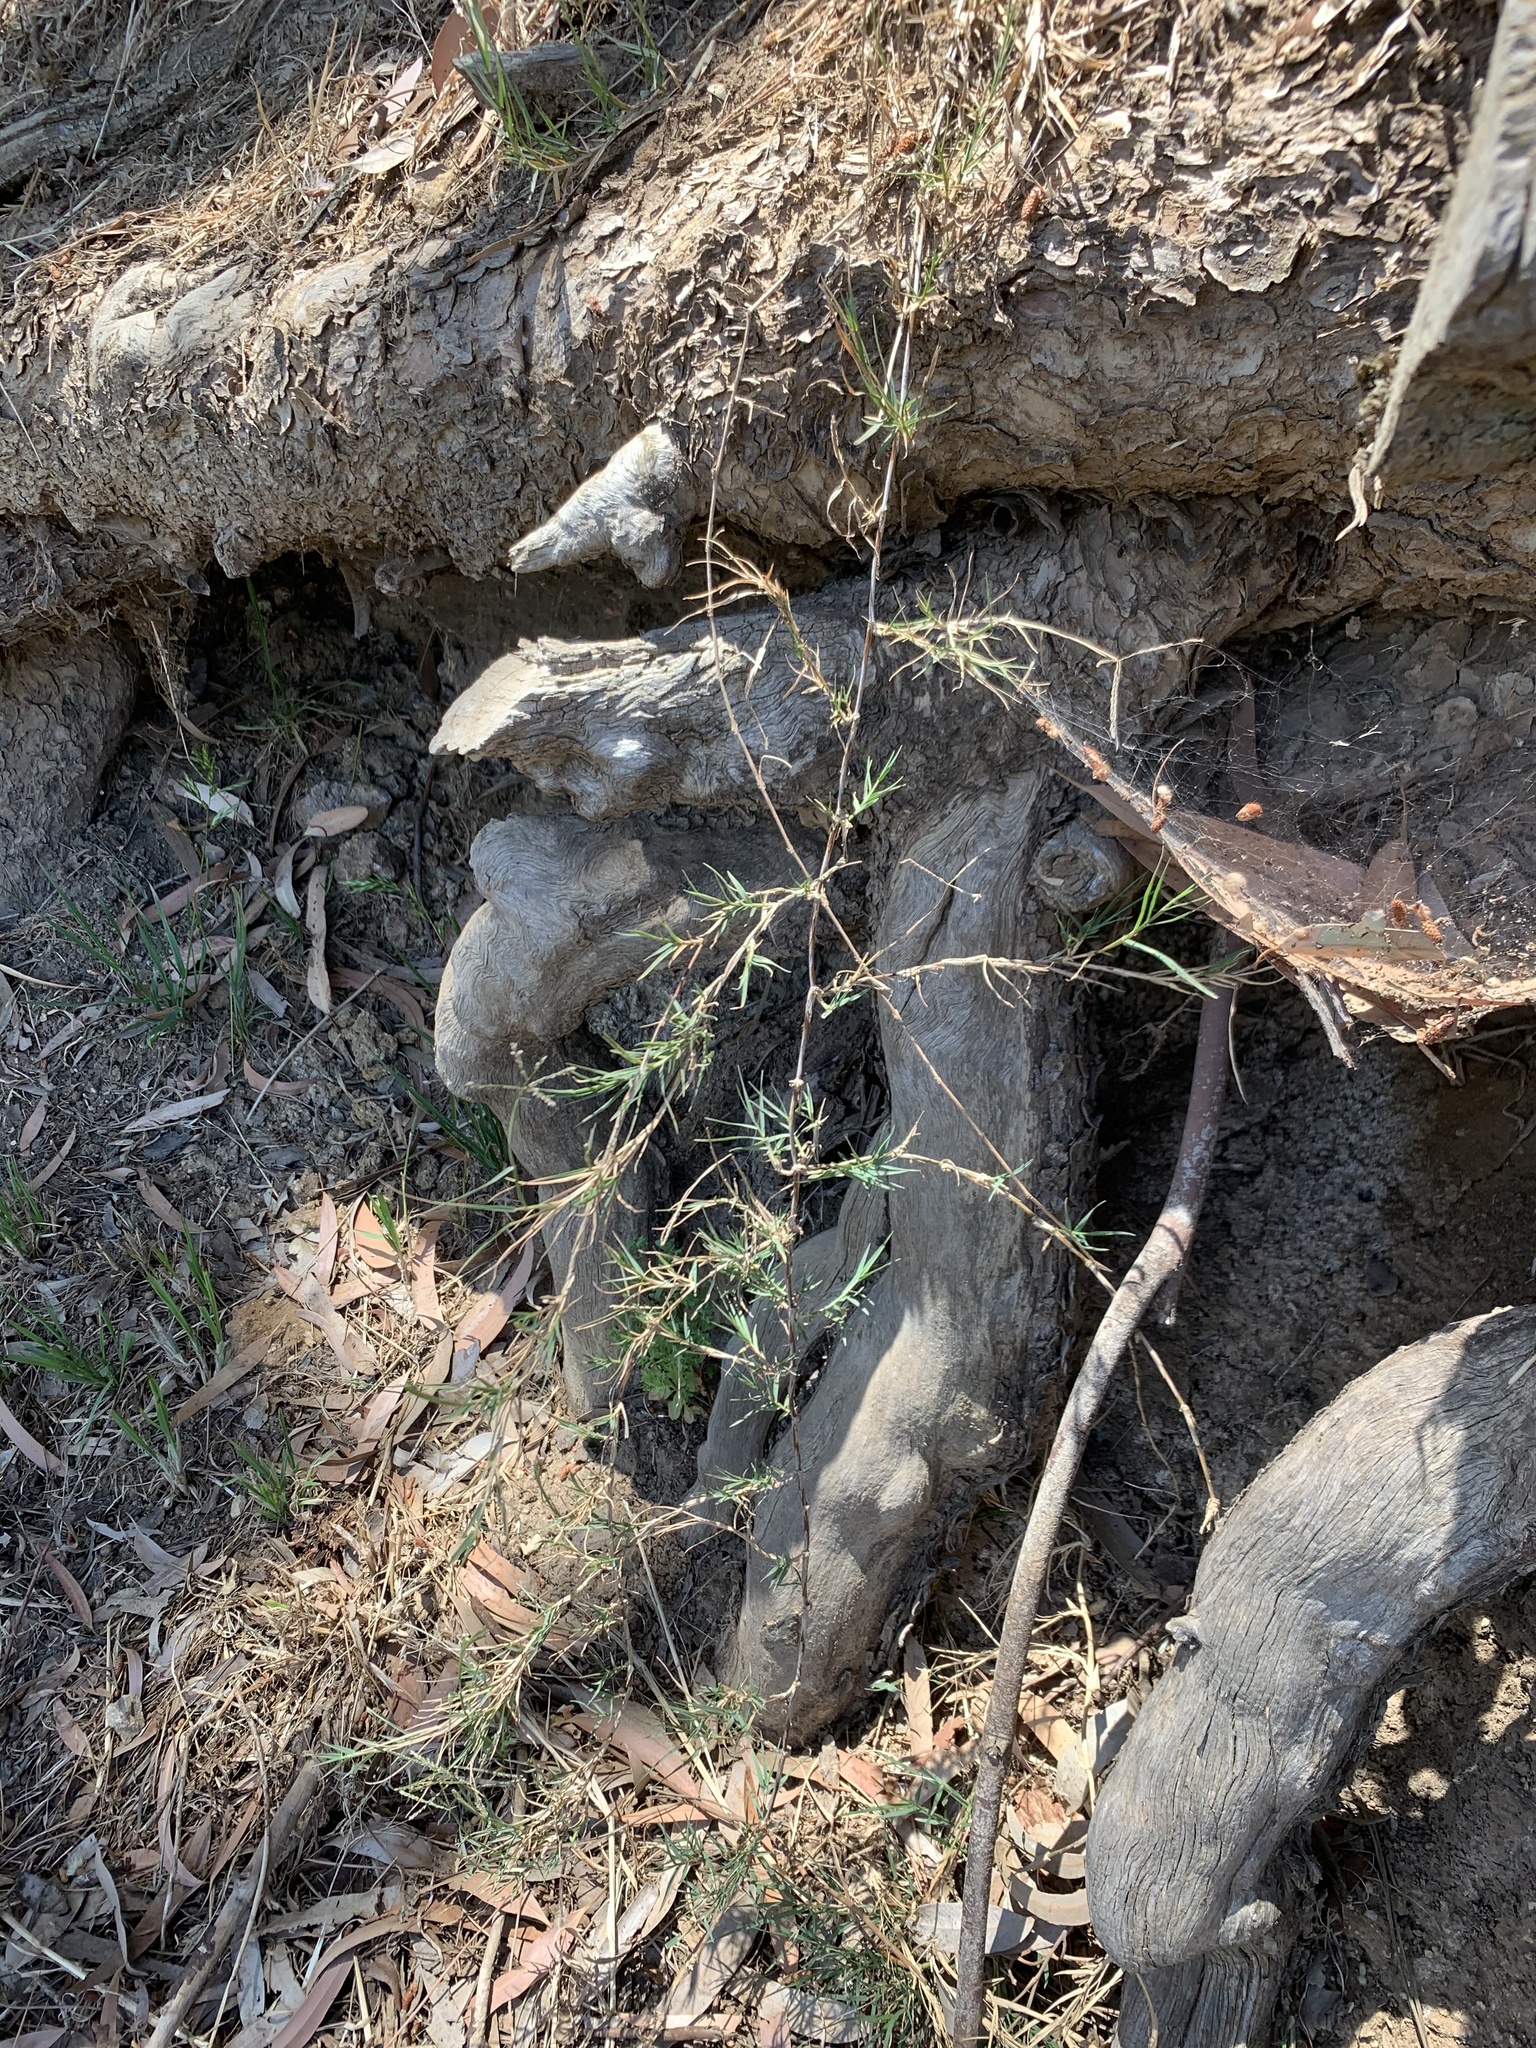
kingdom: Plantae
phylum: Tracheophyta
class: Liliopsida
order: Poales
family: Poaceae
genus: Cynodon
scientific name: Cynodon dactylon
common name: Bermuda grass
